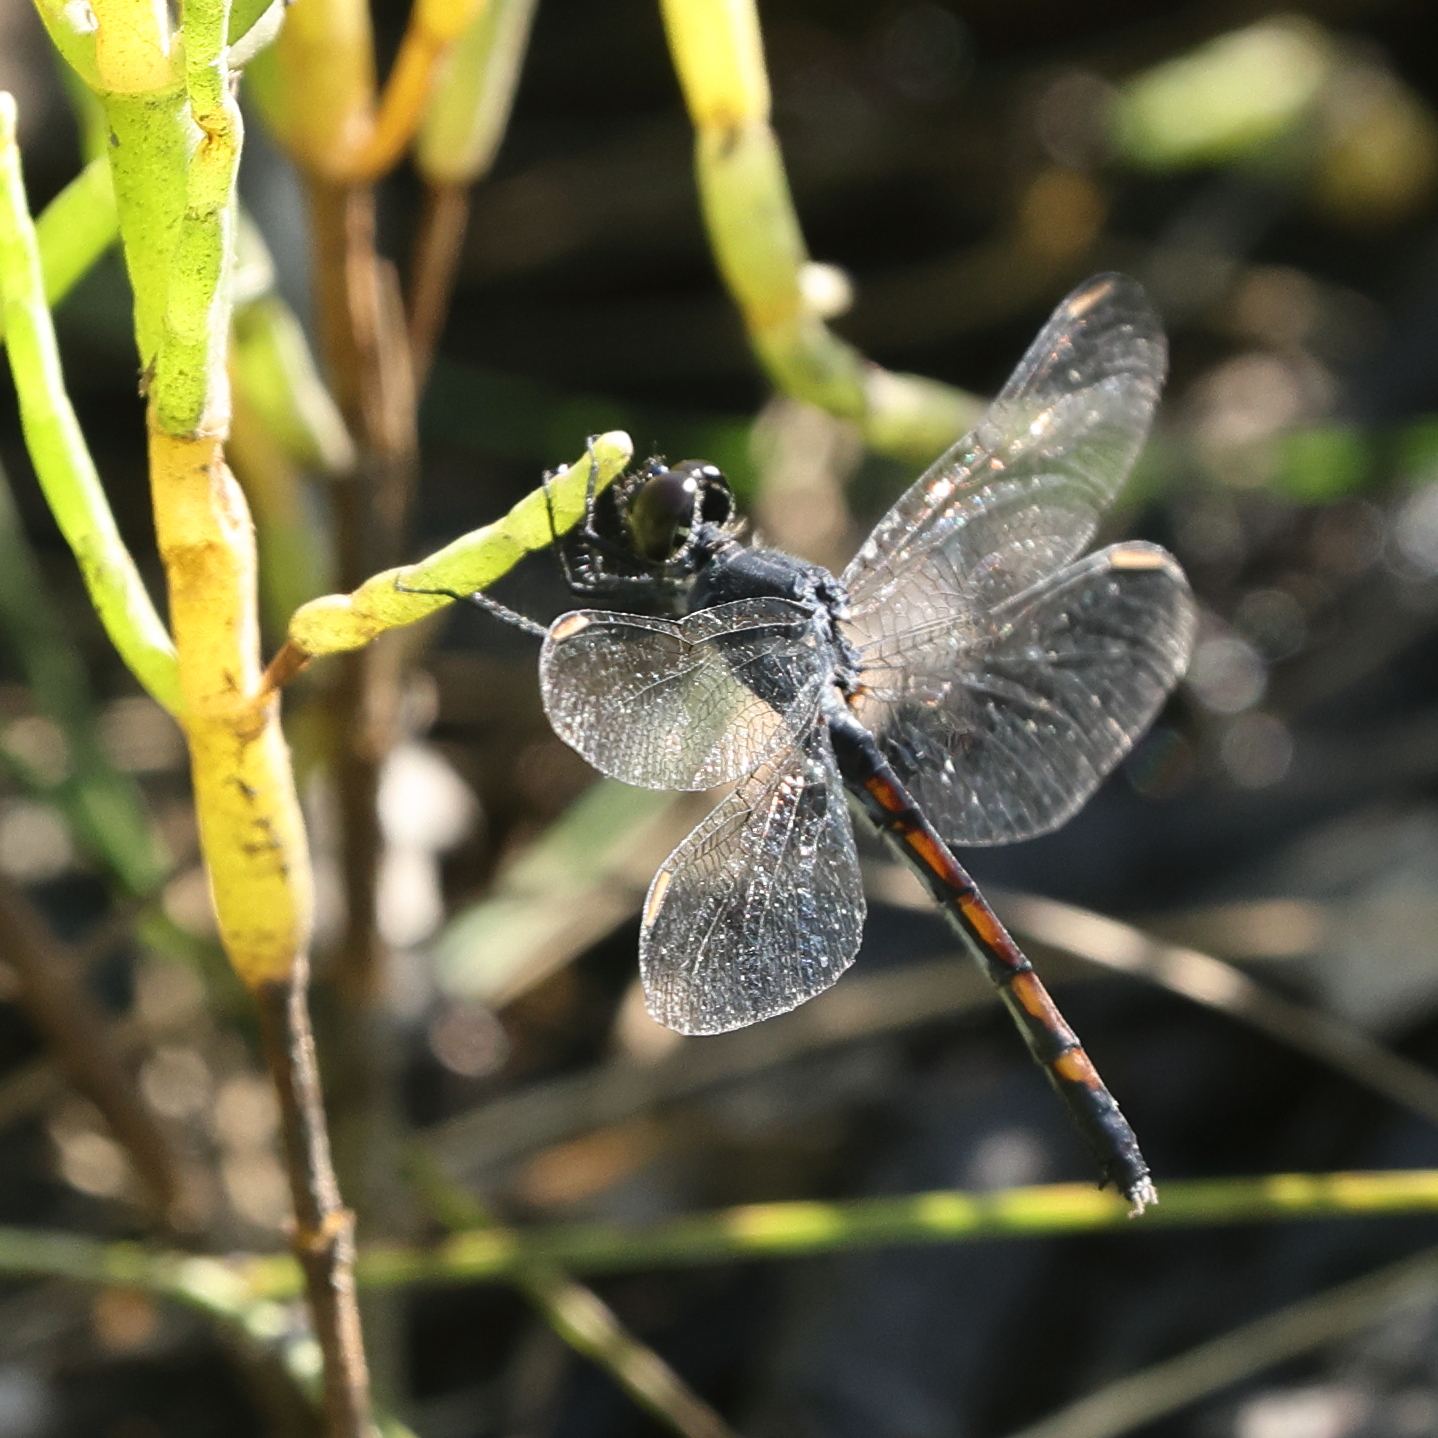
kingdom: Animalia
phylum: Arthropoda
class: Insecta
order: Odonata
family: Libellulidae
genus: Erythrodiplax
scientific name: Erythrodiplax berenice
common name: Seaside dragonlet
